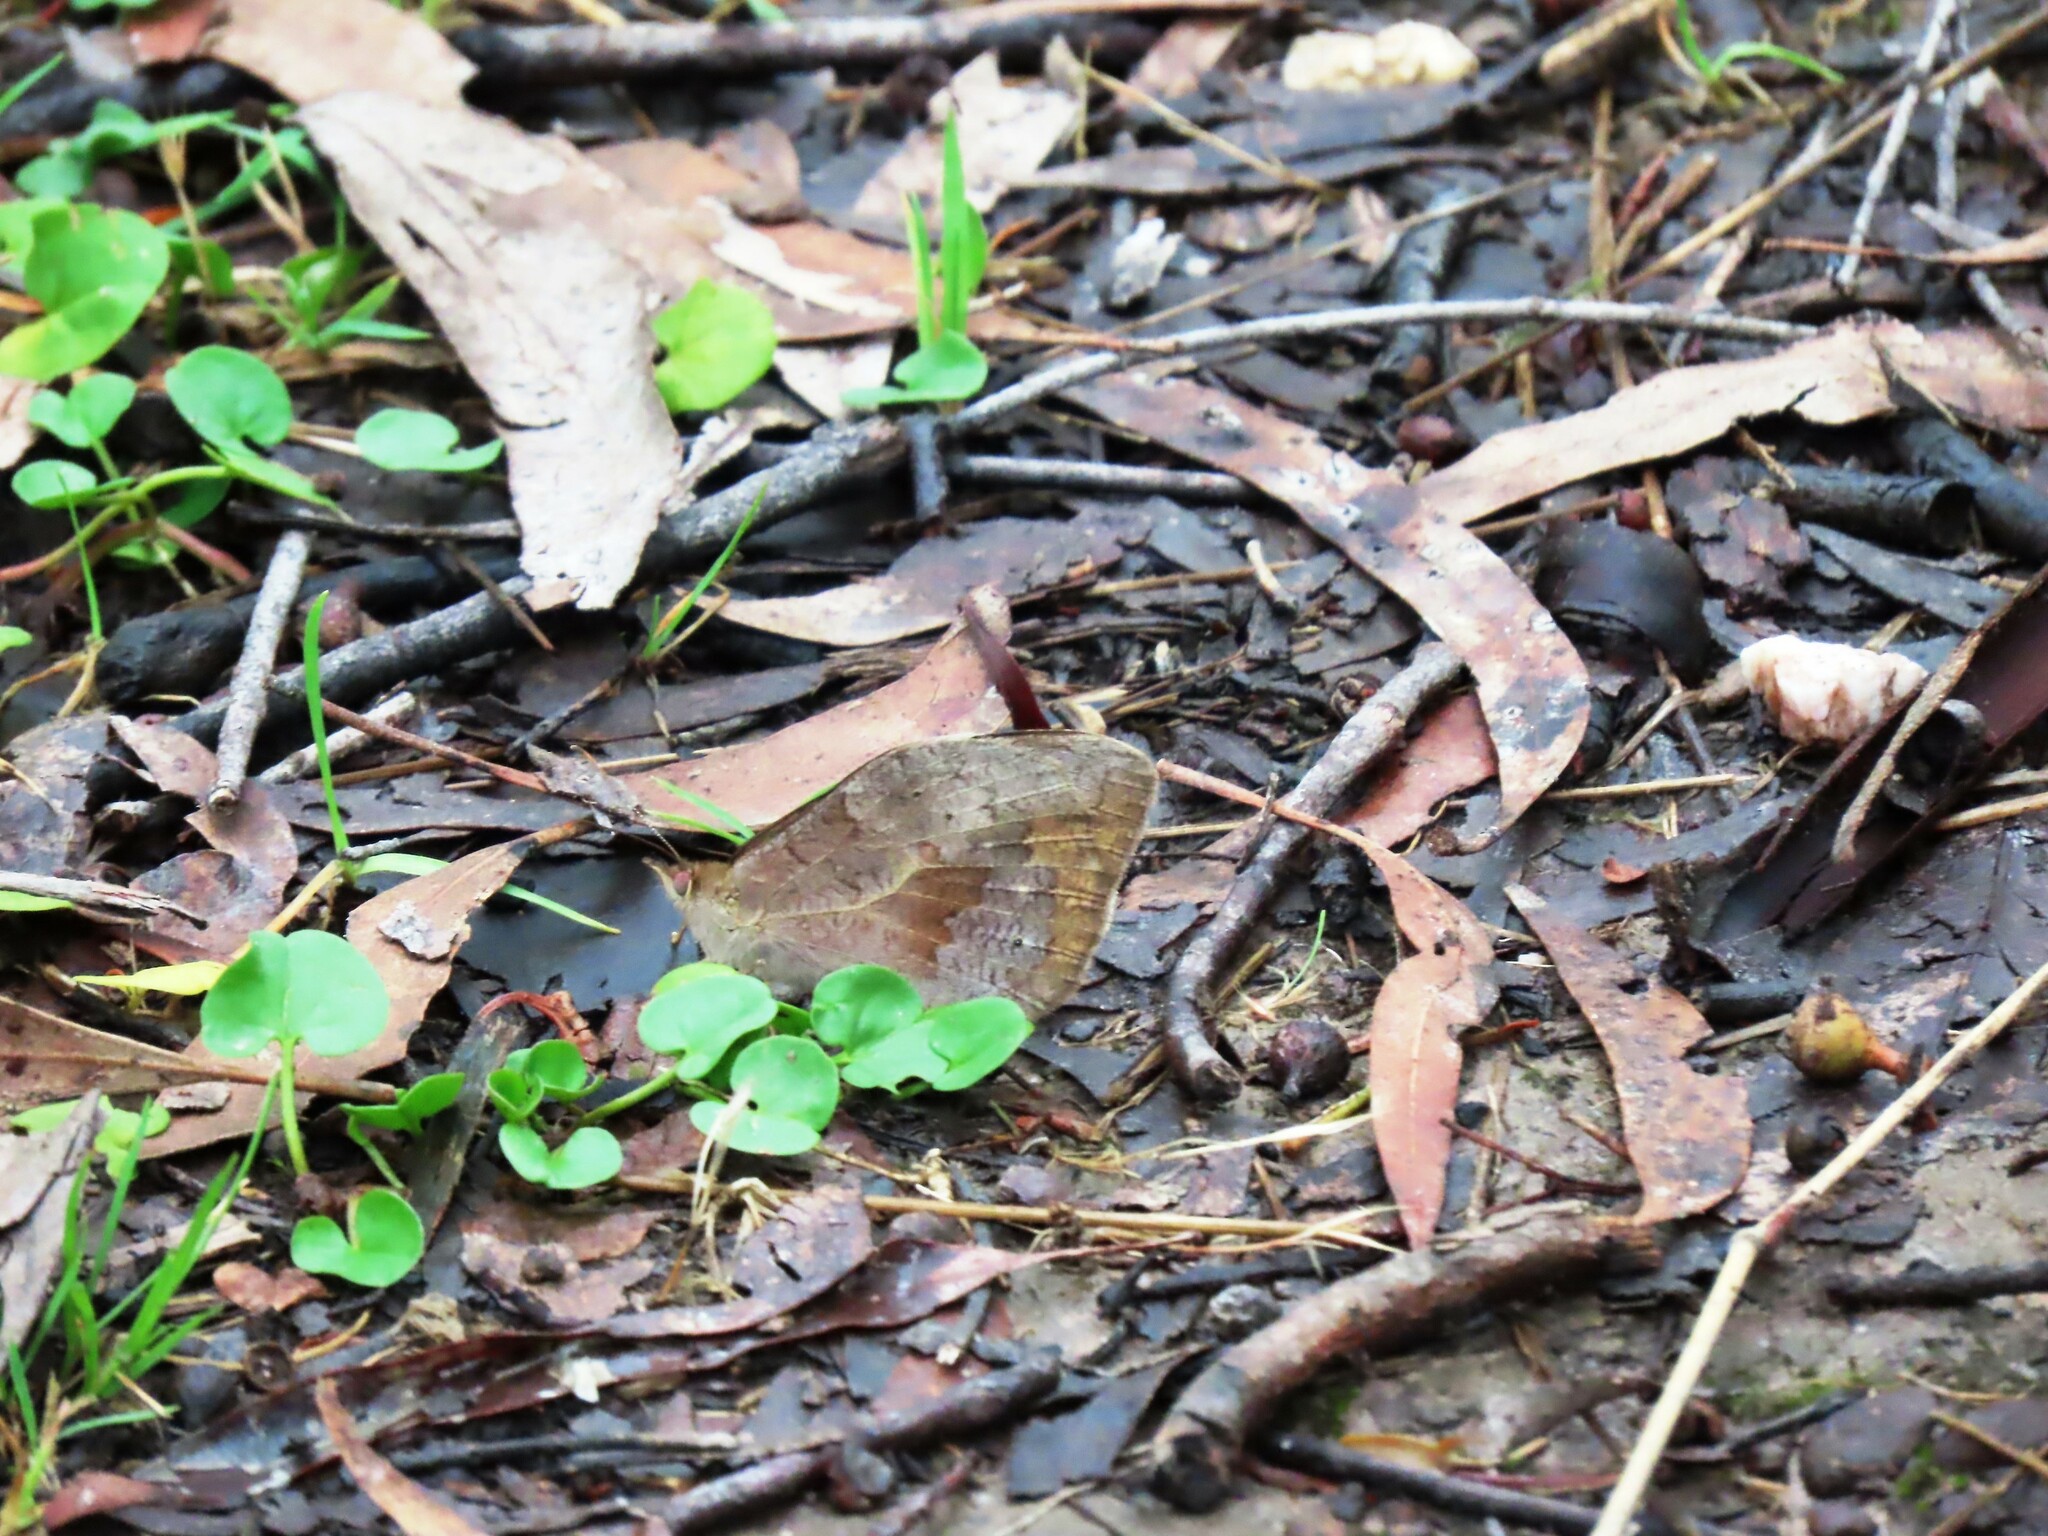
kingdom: Animalia
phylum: Arthropoda
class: Insecta
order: Lepidoptera
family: Nymphalidae
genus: Heteronympha
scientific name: Heteronympha merope
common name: Common brown
